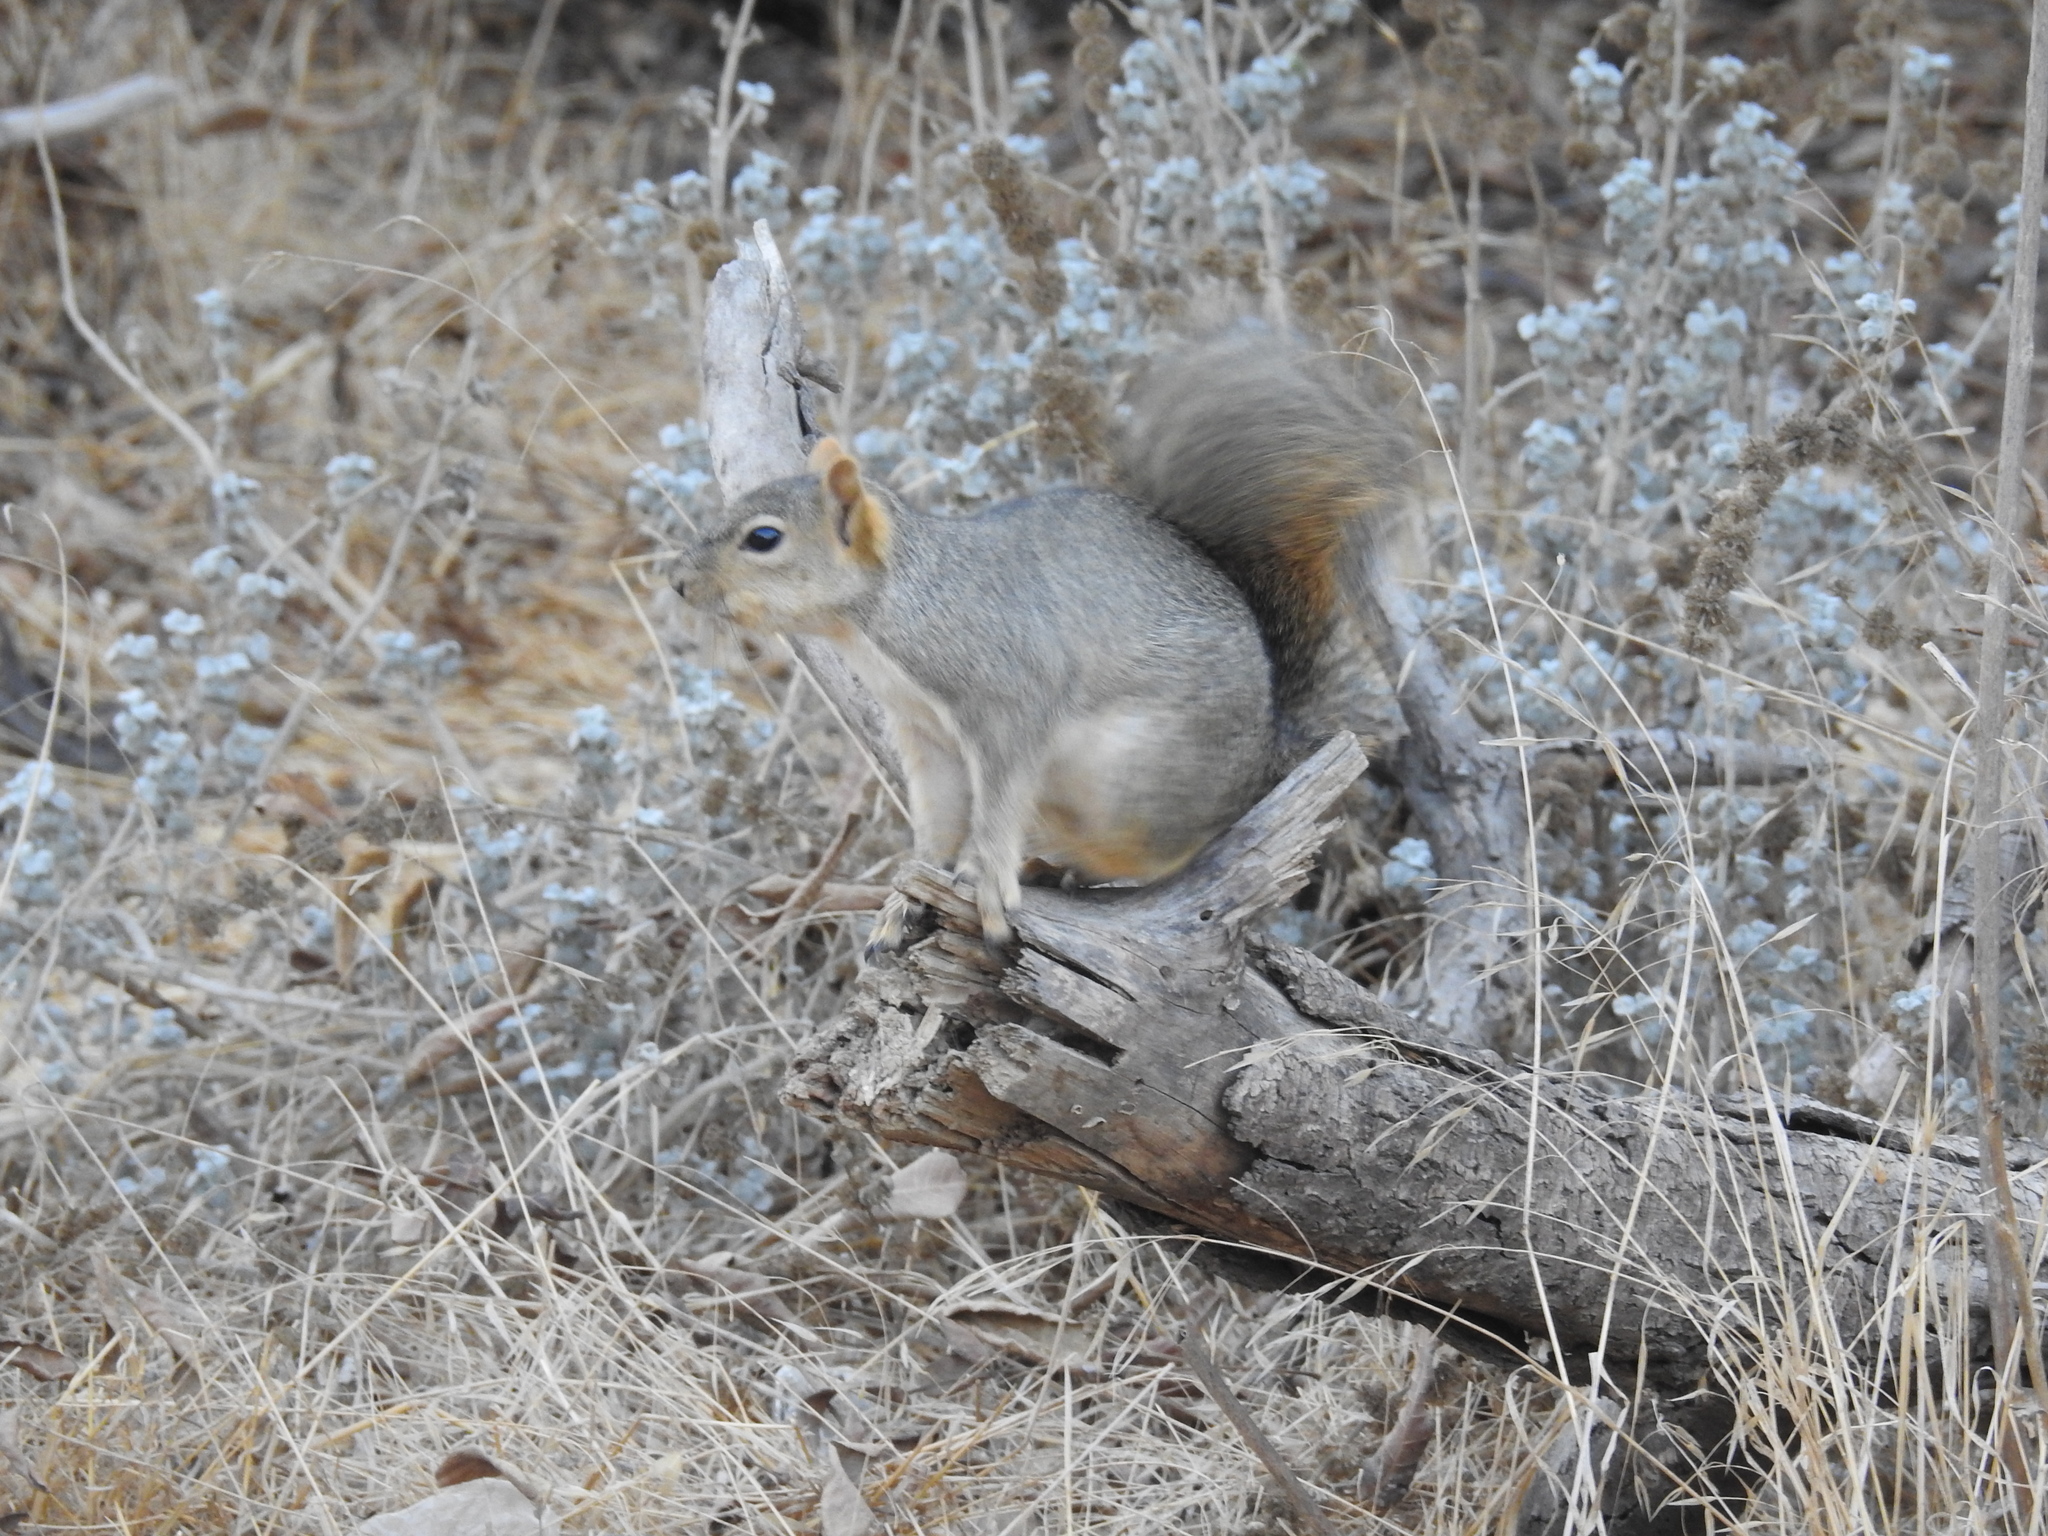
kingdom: Animalia
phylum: Chordata
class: Mammalia
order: Rodentia
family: Sciuridae
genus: Sciurus
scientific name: Sciurus niger
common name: Fox squirrel
